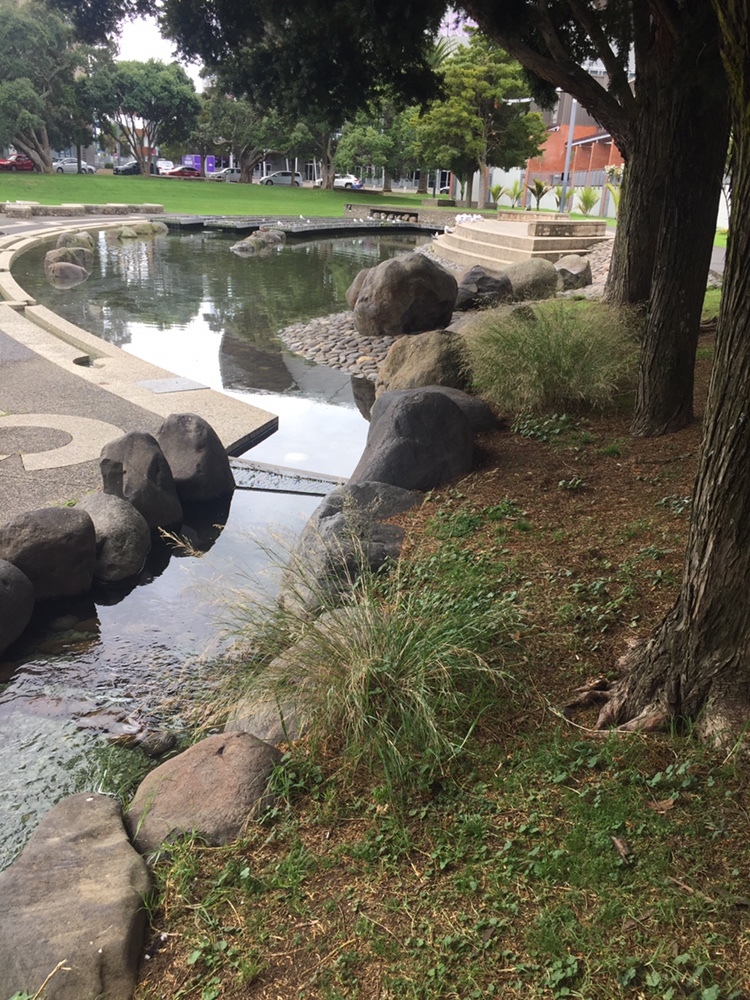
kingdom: Plantae
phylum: Tracheophyta
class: Liliopsida
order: Poales
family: Poaceae
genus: Oloptum
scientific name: Oloptum miliaceum
